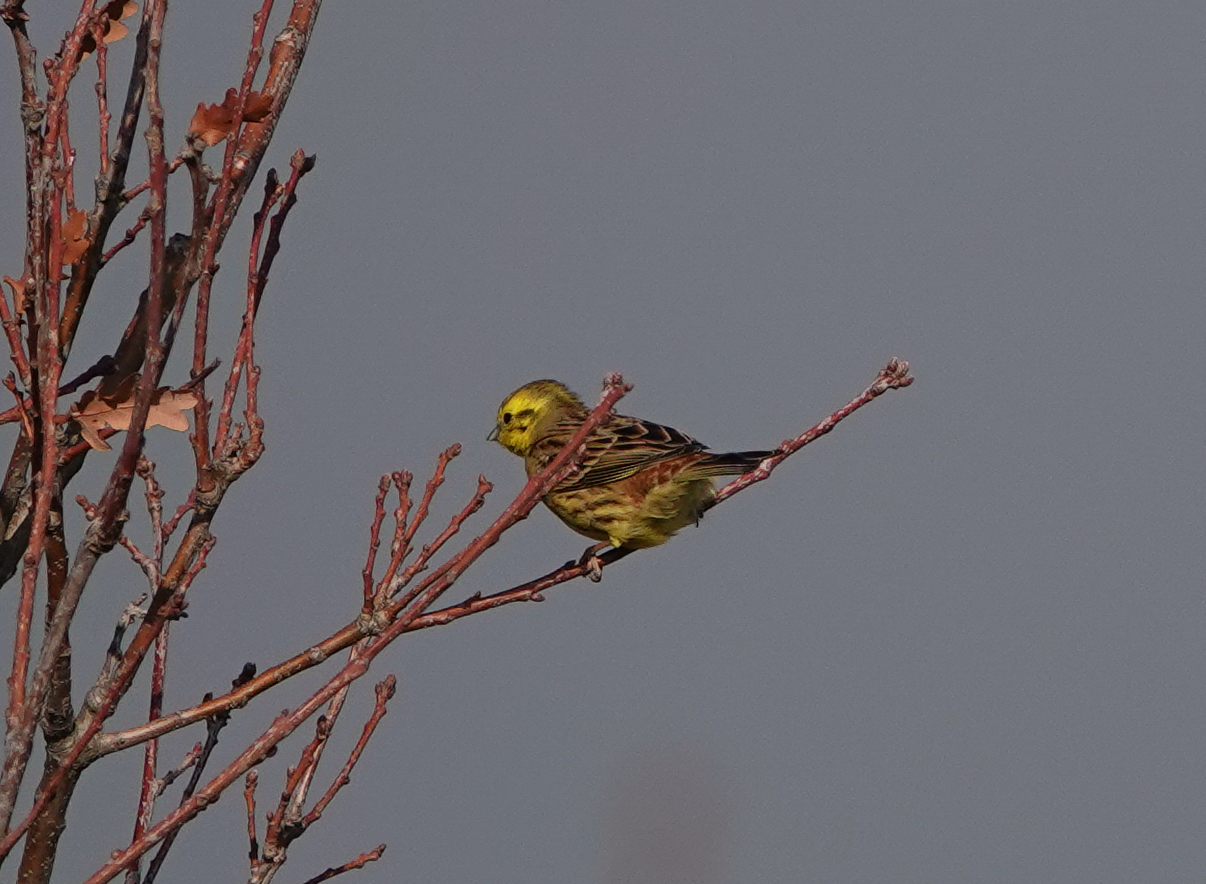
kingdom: Animalia
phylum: Chordata
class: Aves
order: Passeriformes
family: Emberizidae
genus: Emberiza
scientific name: Emberiza citrinella
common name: Yellowhammer
